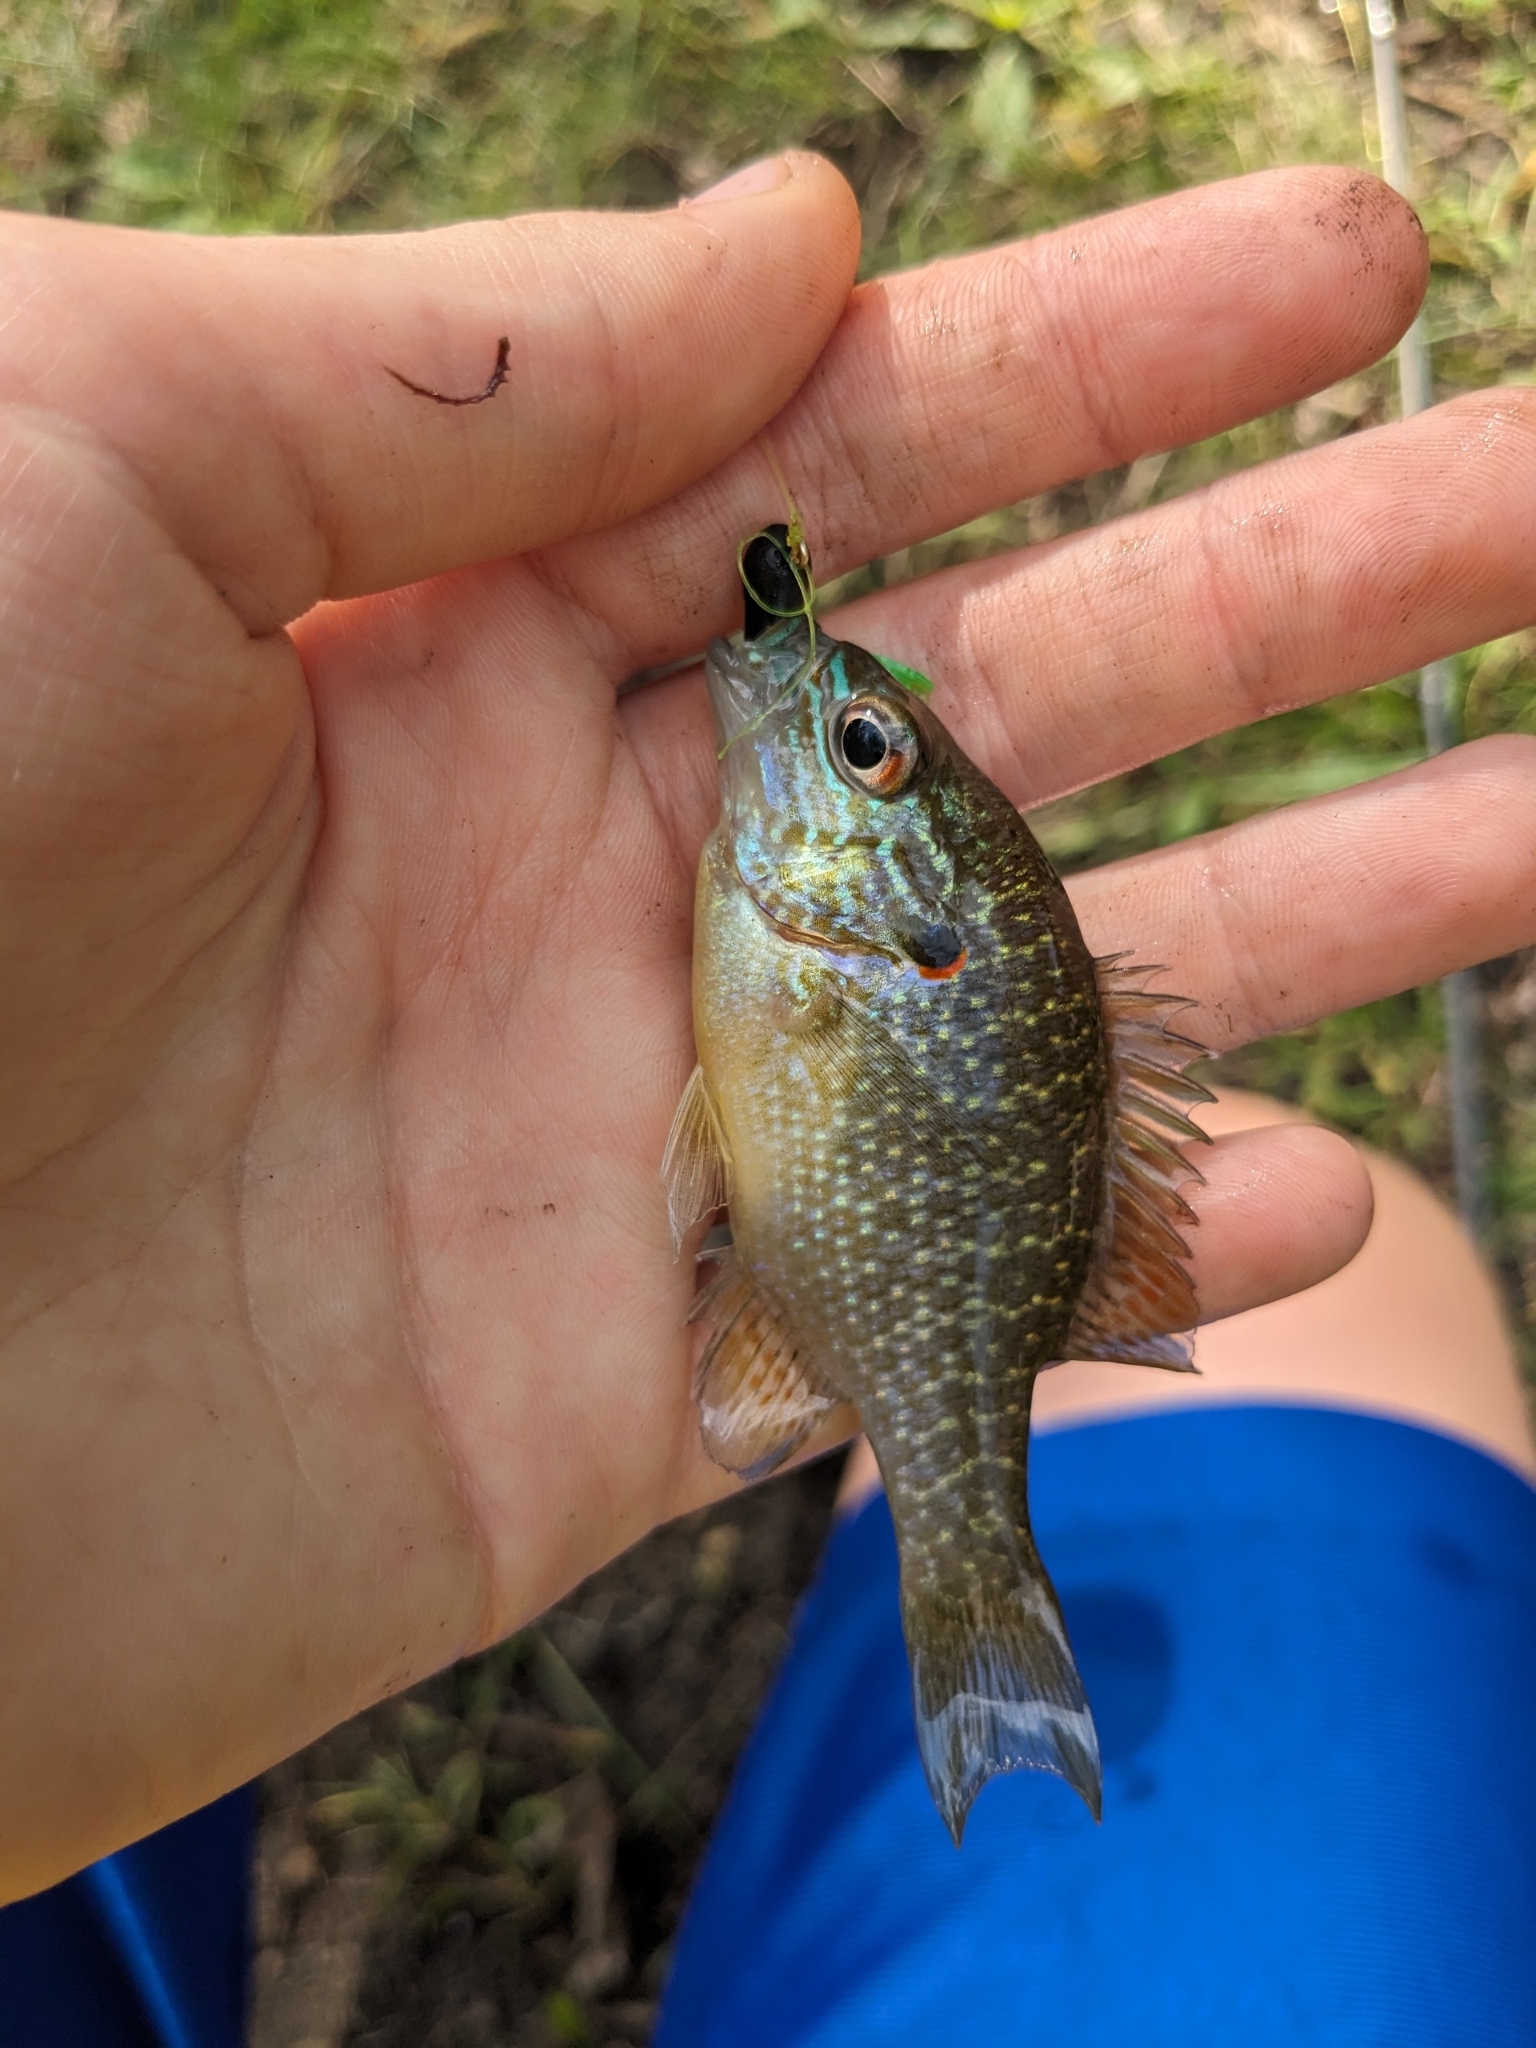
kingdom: Animalia
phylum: Chordata
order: Perciformes
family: Centrarchidae
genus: Lepomis
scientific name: Lepomis peltastes
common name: Northern sunfish
